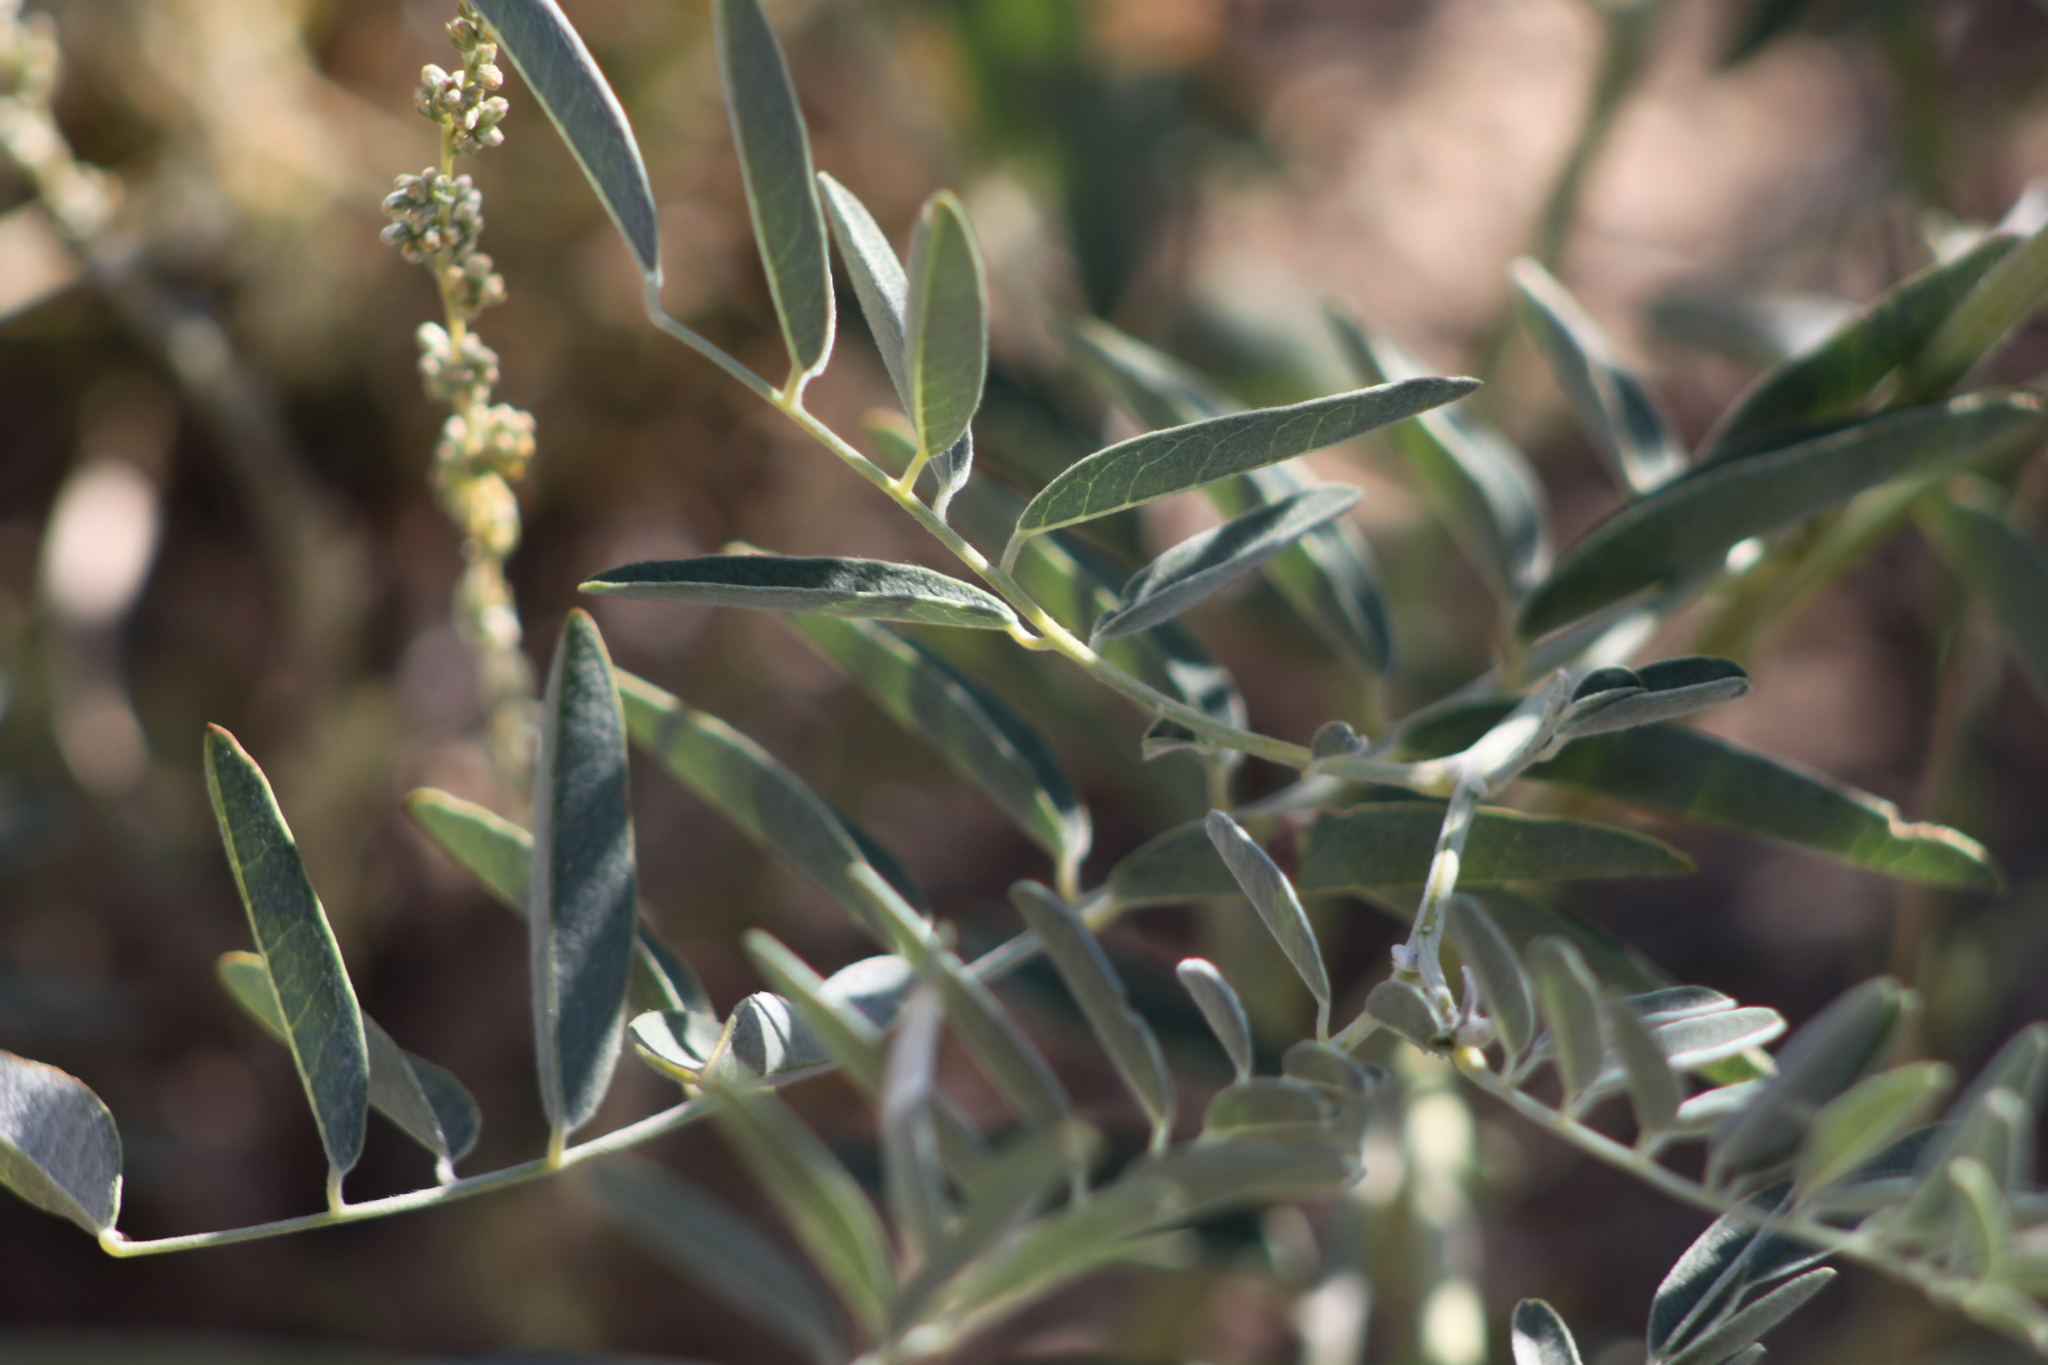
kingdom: Plantae
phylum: Tracheophyta
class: Magnoliopsida
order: Fabales
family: Fabaceae
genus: Sophora
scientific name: Sophora alopecuroides
